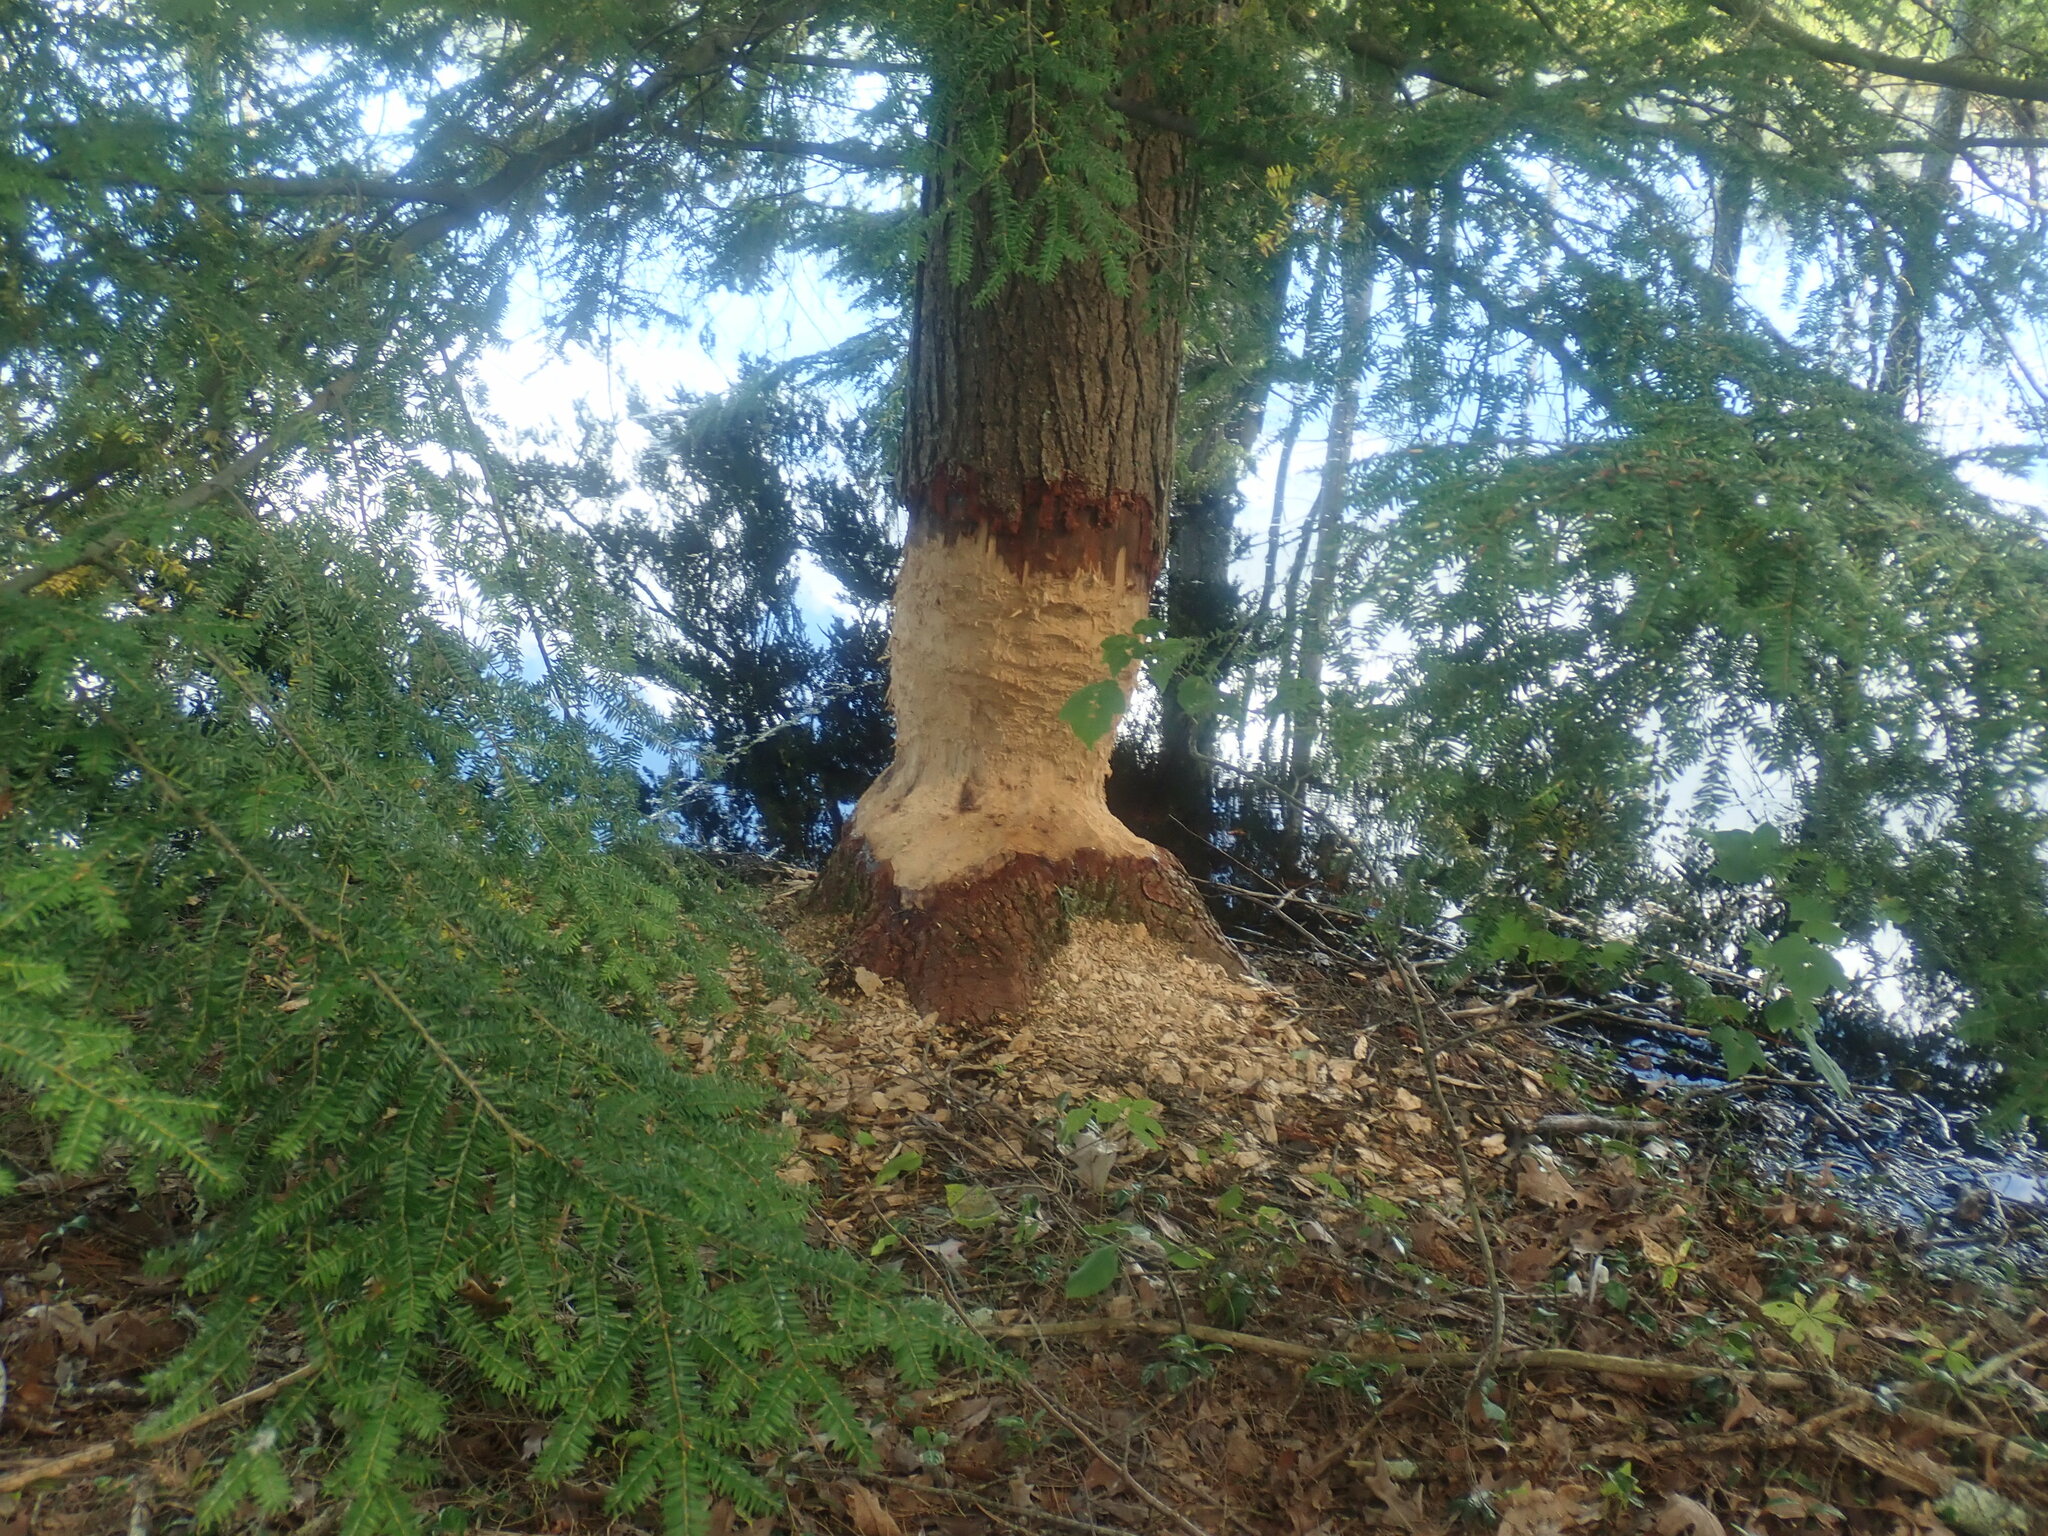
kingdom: Animalia
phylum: Chordata
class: Mammalia
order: Rodentia
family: Castoridae
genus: Castor
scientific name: Castor canadensis
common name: American beaver
